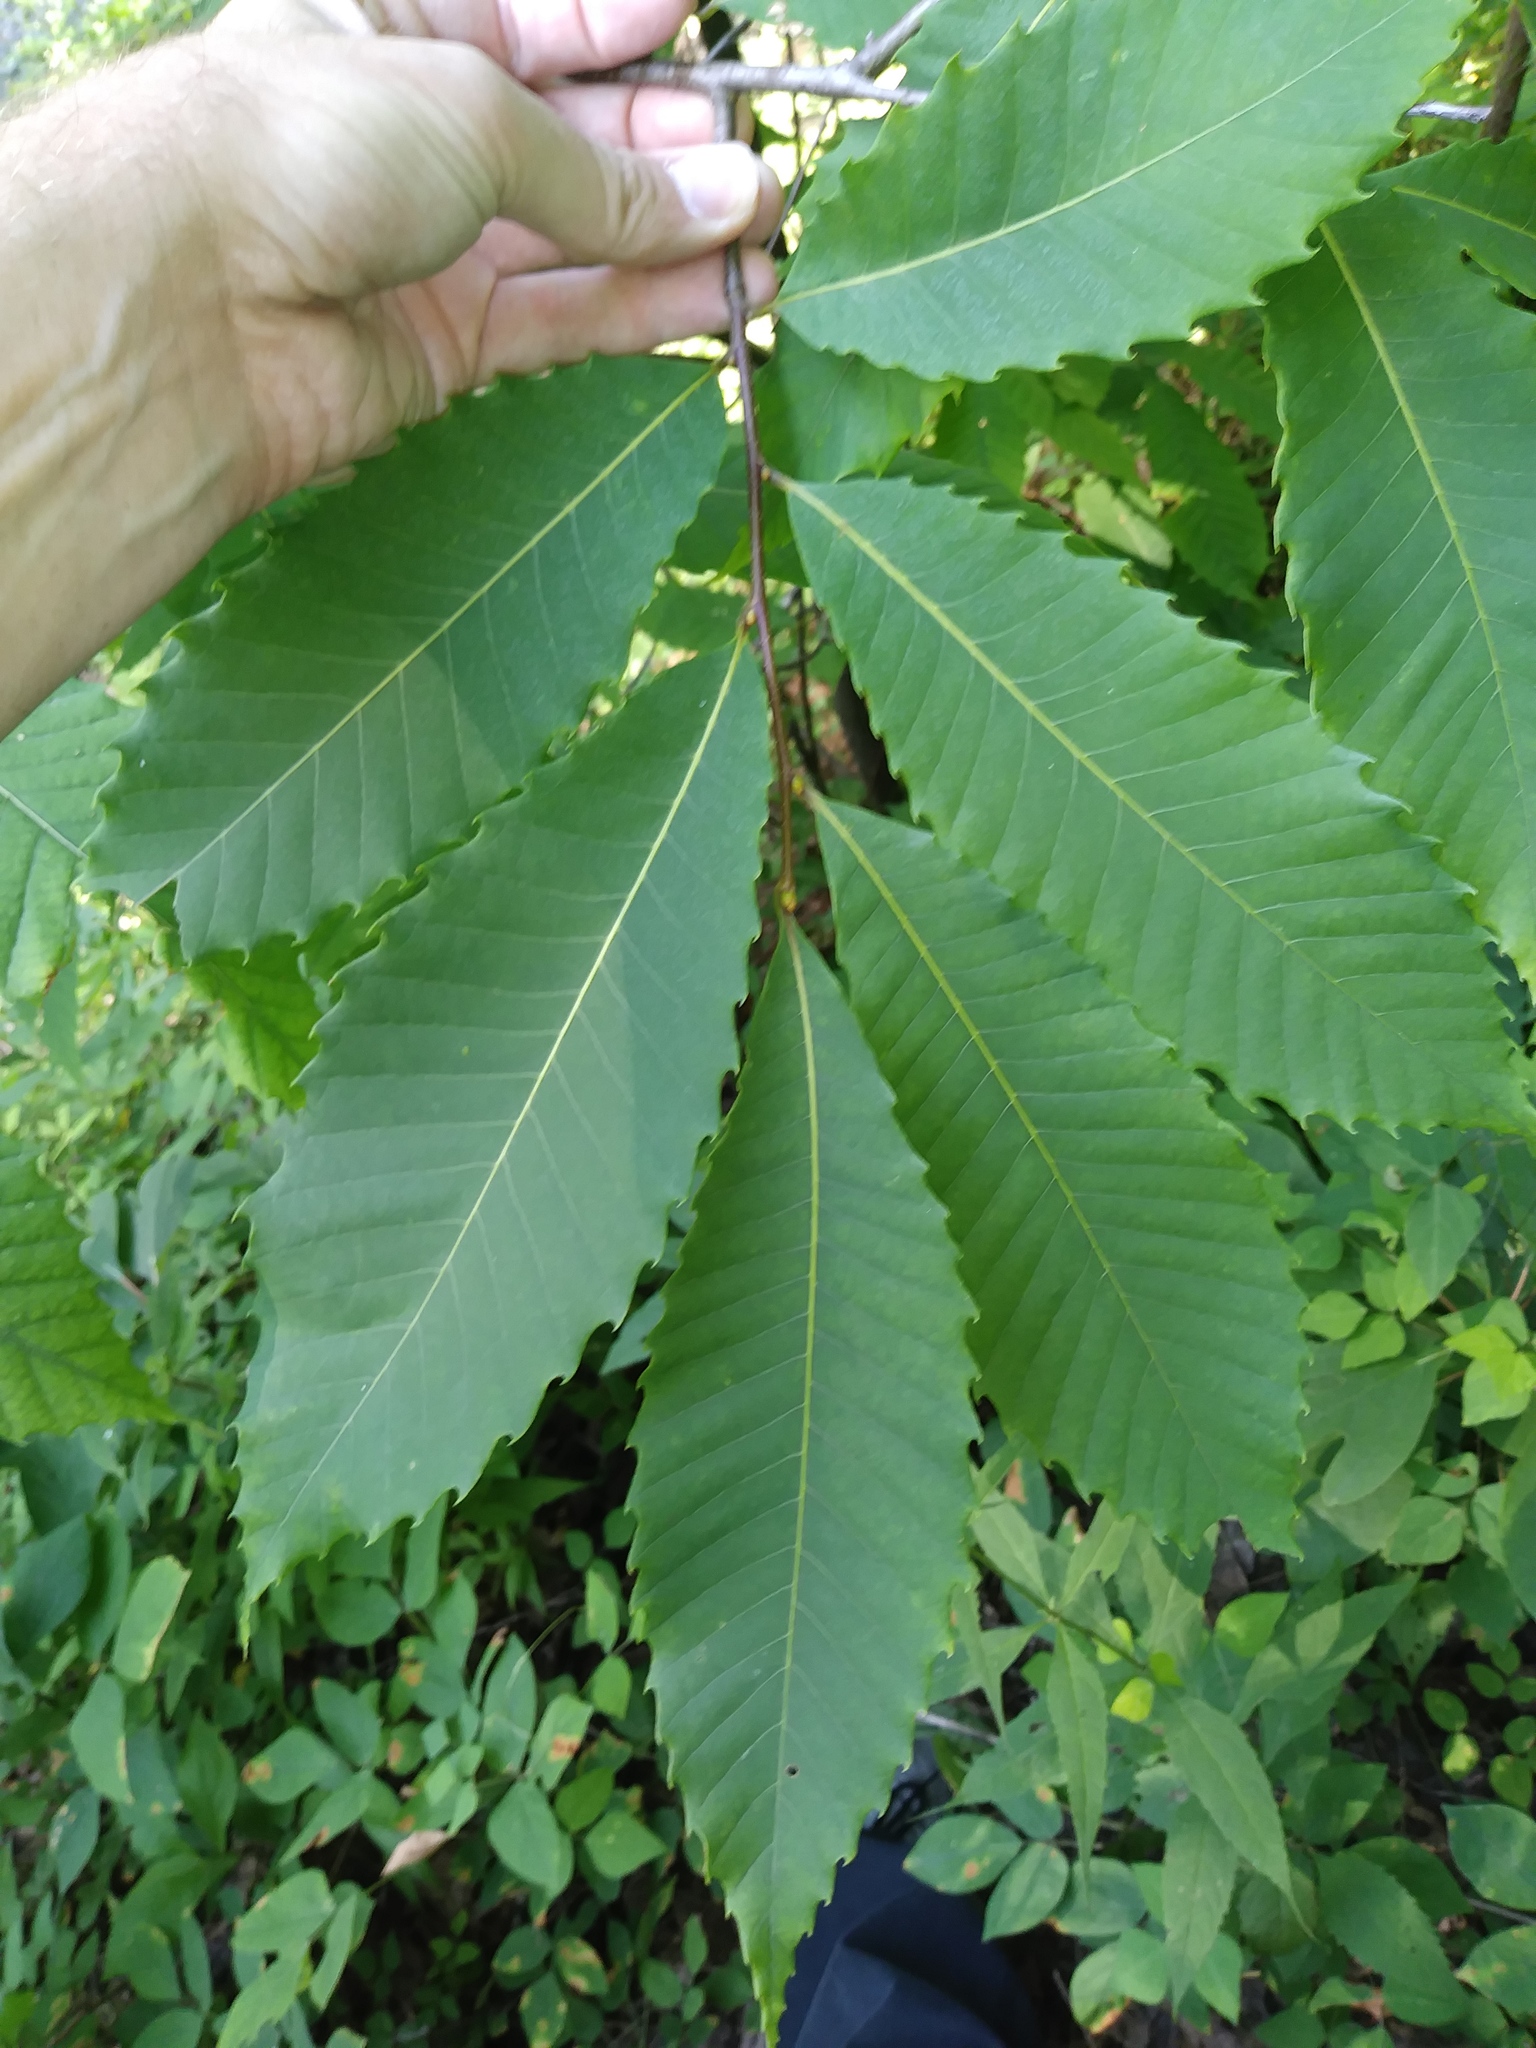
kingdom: Plantae
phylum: Tracheophyta
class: Magnoliopsida
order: Fagales
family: Fagaceae
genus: Castanea
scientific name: Castanea dentata
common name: American chestnut
